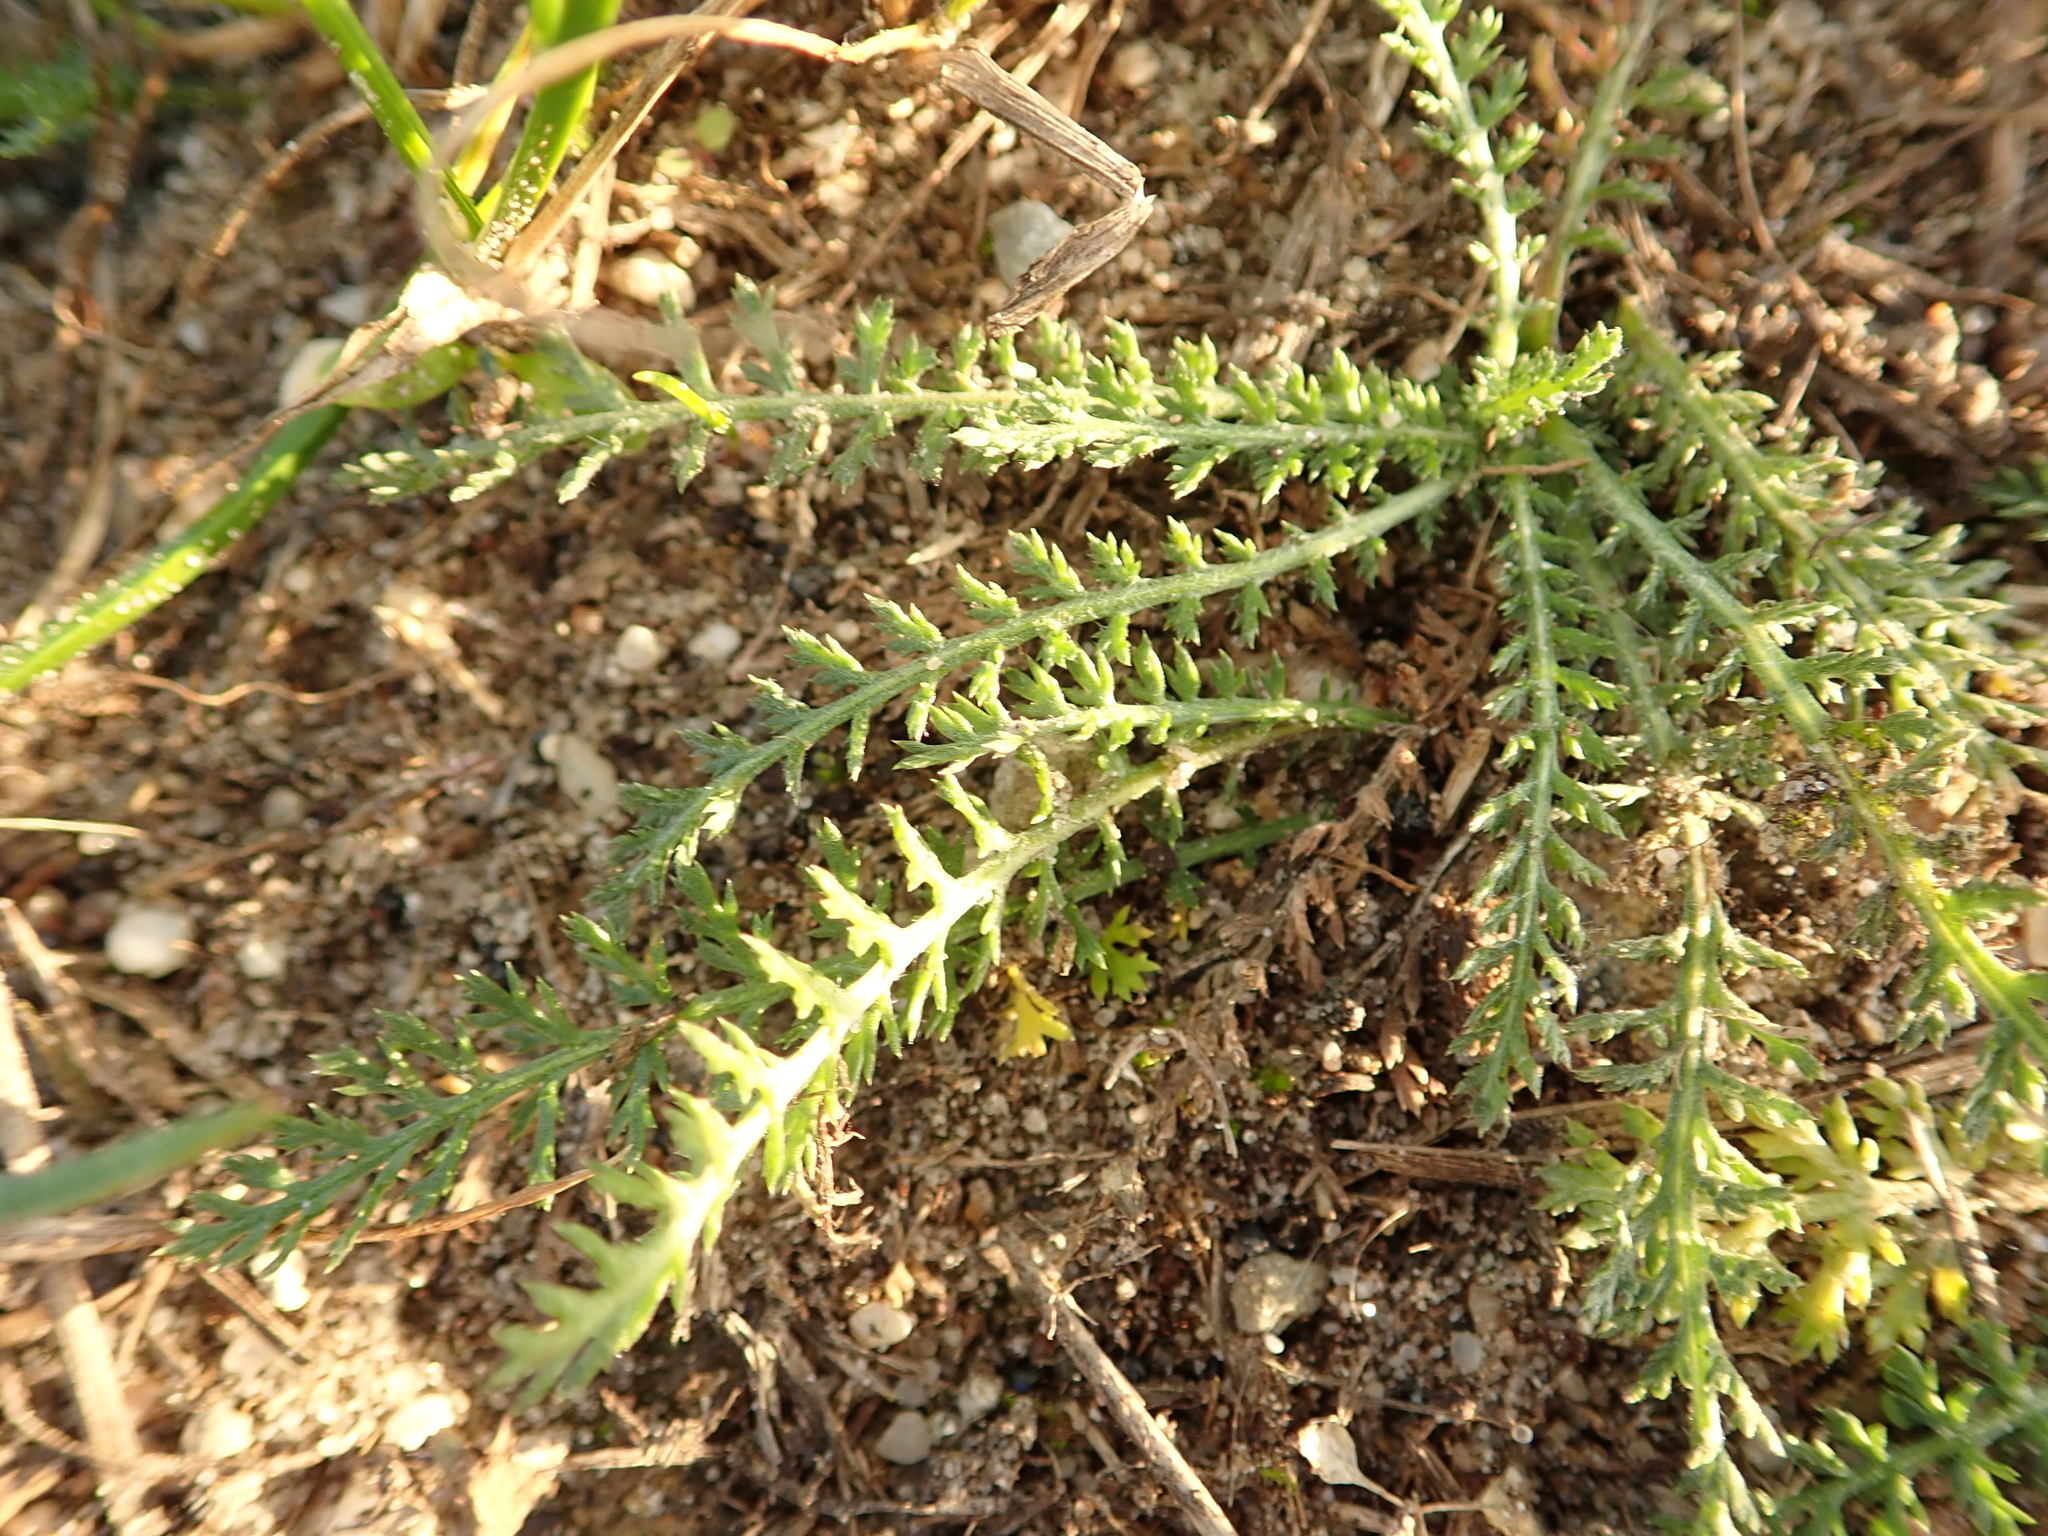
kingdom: Plantae
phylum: Tracheophyta
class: Magnoliopsida
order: Asterales
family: Asteraceae
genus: Achillea
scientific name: Achillea millefolium
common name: Yarrow
